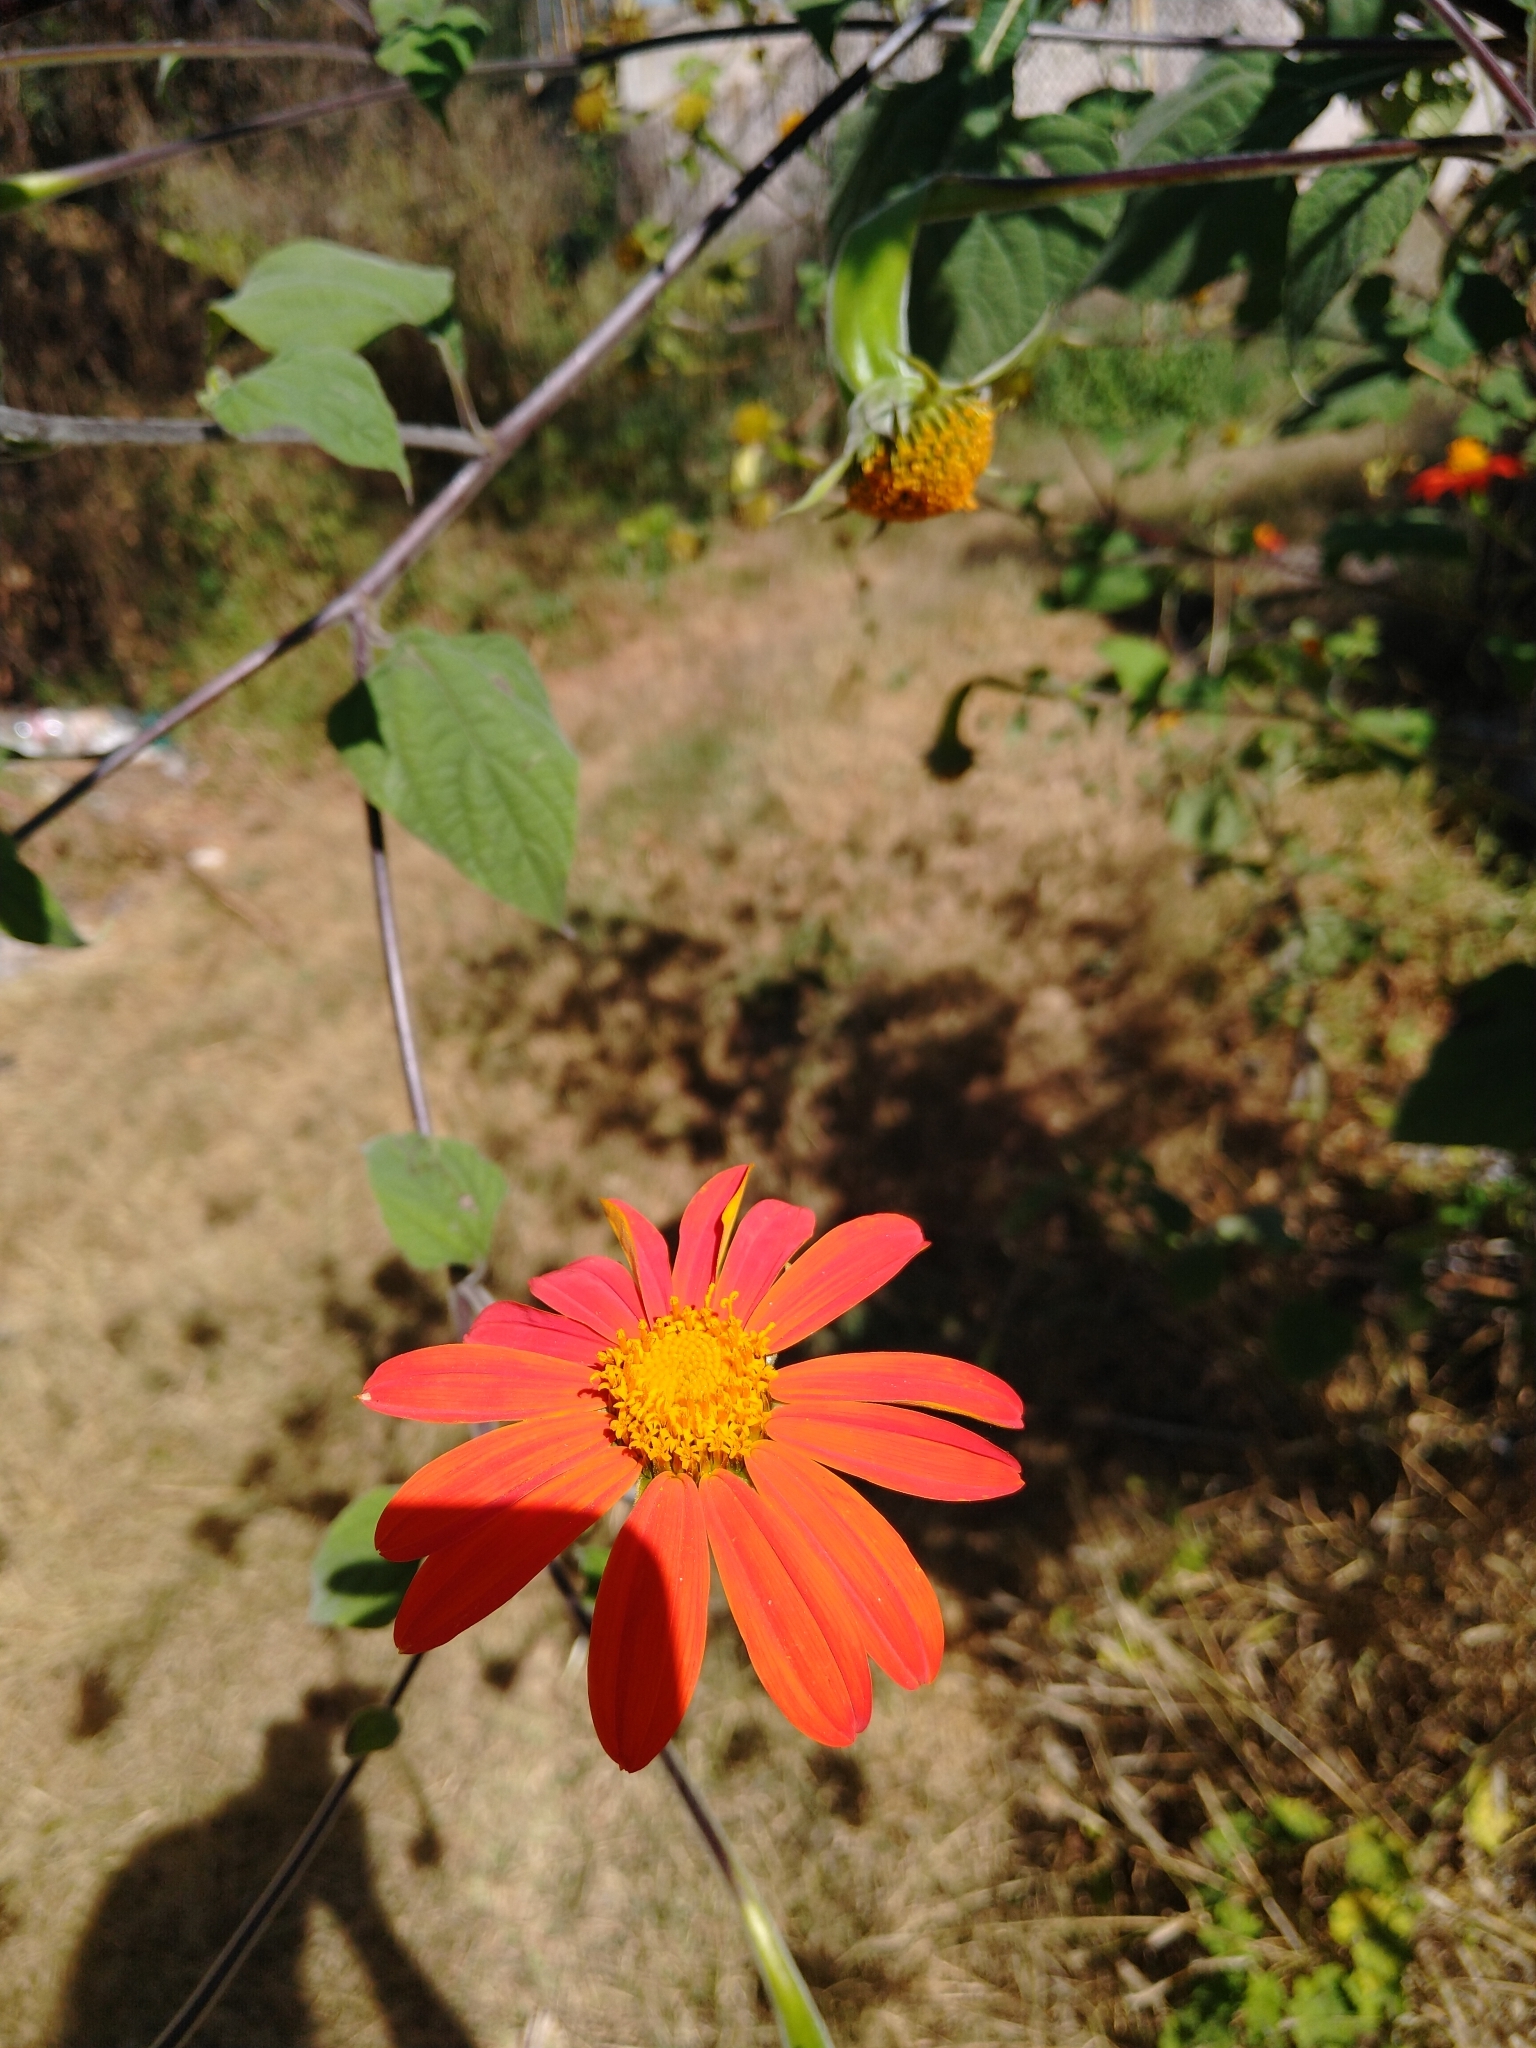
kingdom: Plantae
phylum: Tracheophyta
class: Magnoliopsida
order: Asterales
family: Asteraceae
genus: Tithonia
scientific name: Tithonia rotundifolia
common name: Sunflower
